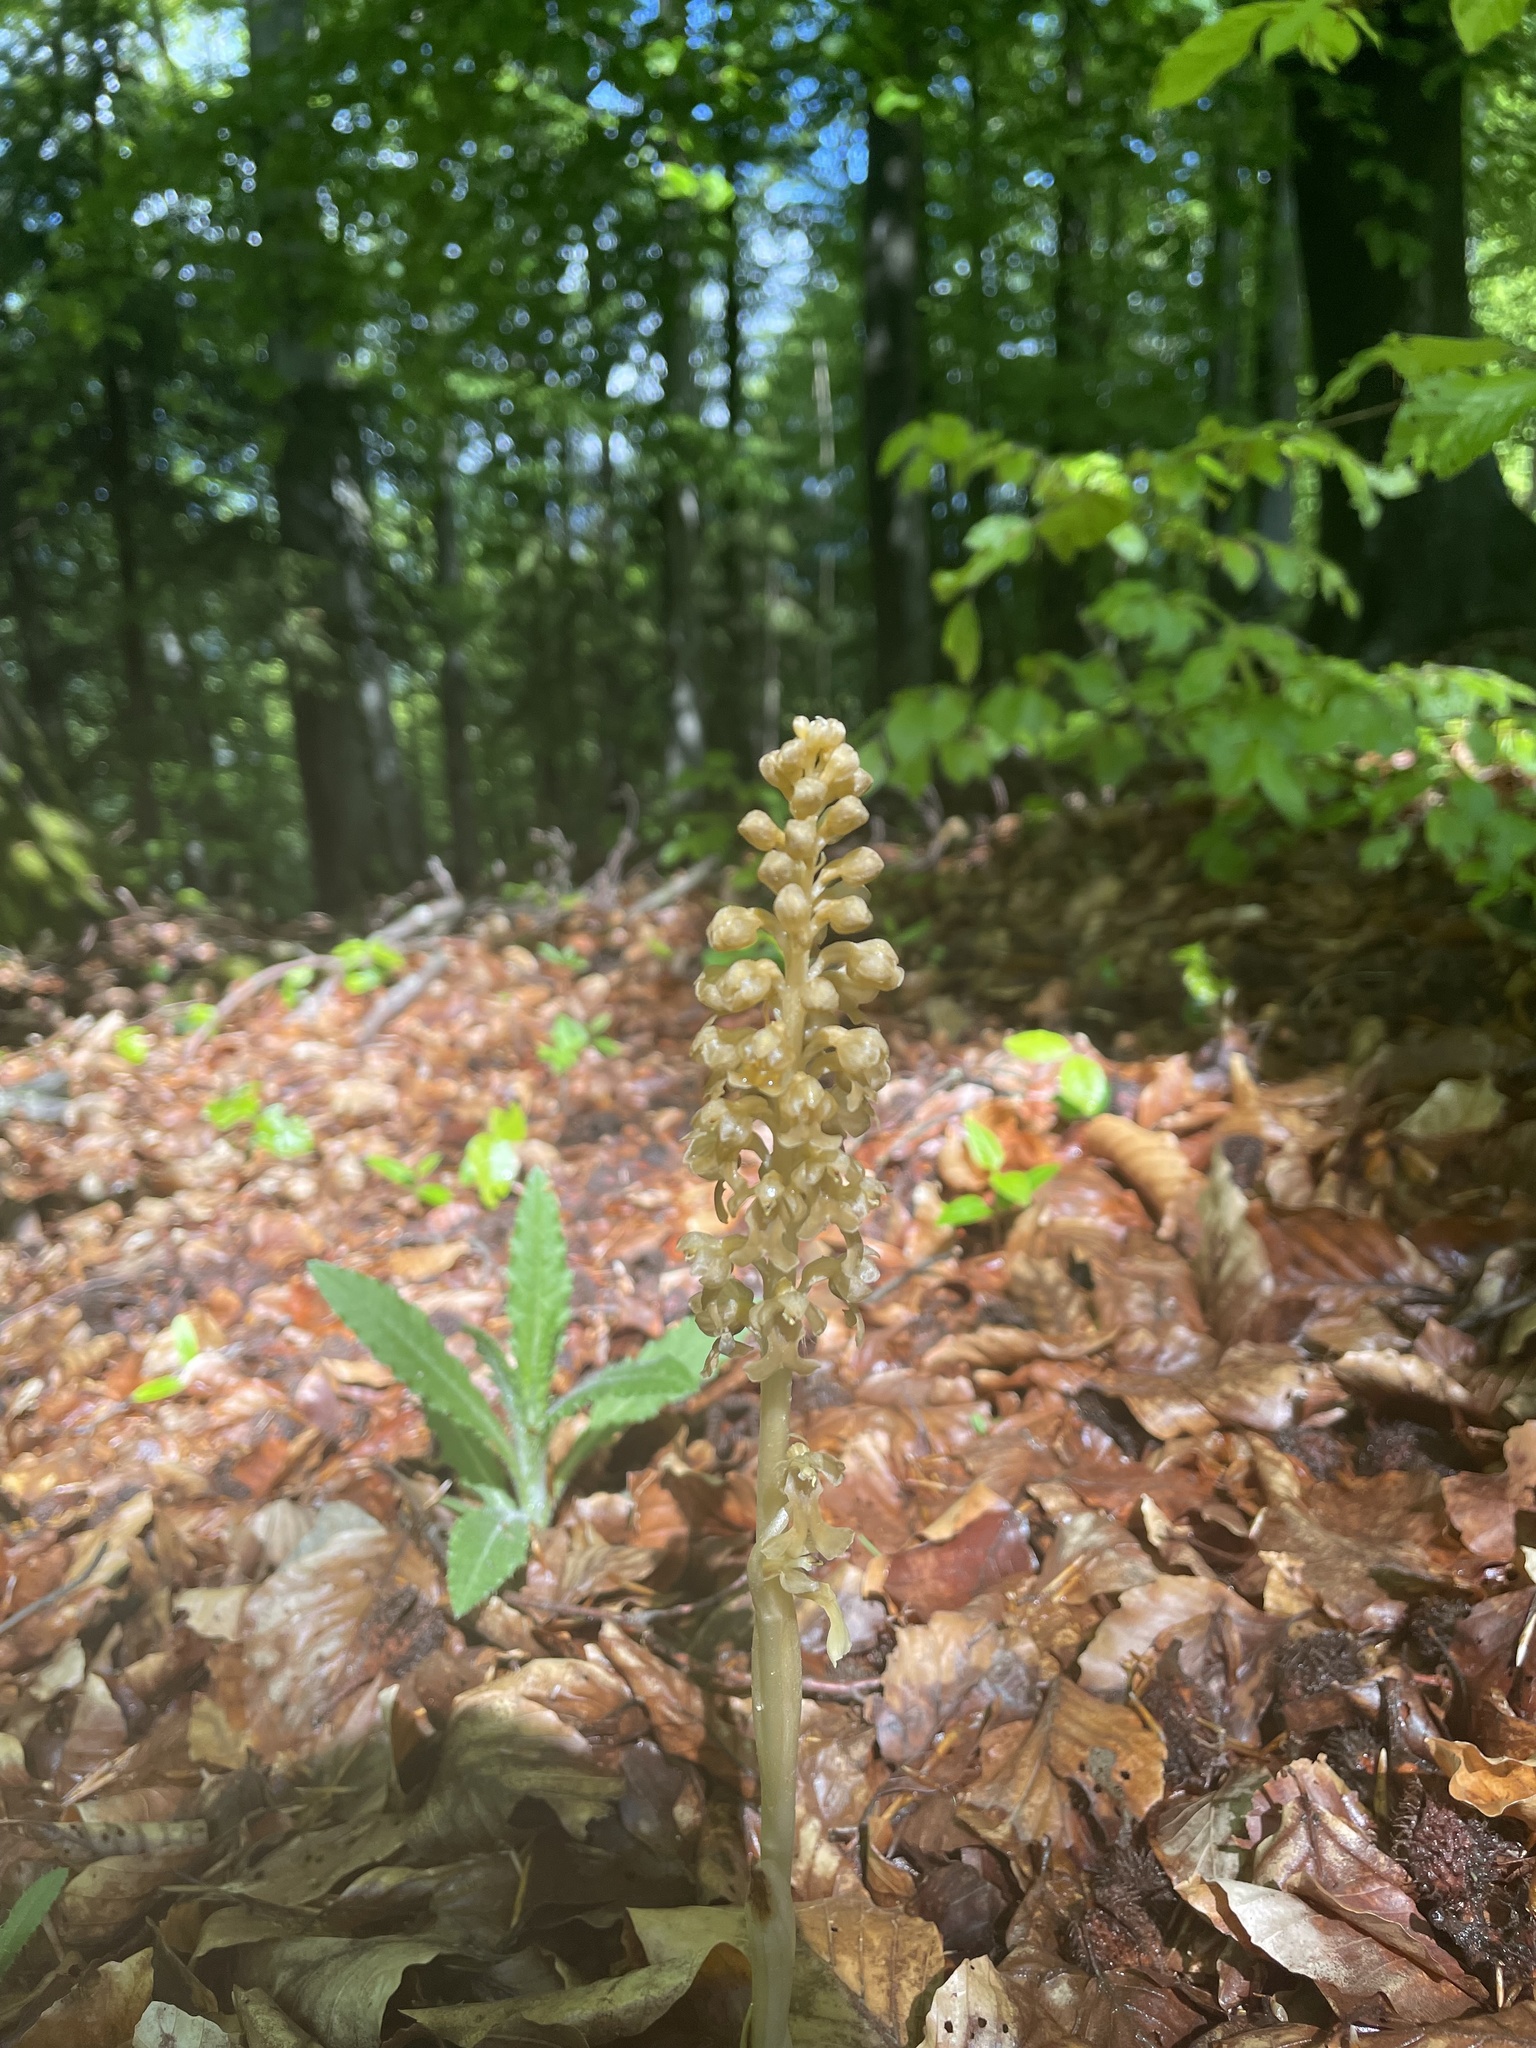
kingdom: Plantae
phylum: Tracheophyta
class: Liliopsida
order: Asparagales
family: Orchidaceae
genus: Neottia
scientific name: Neottia nidus-avis
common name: Bird's-nest orchid
